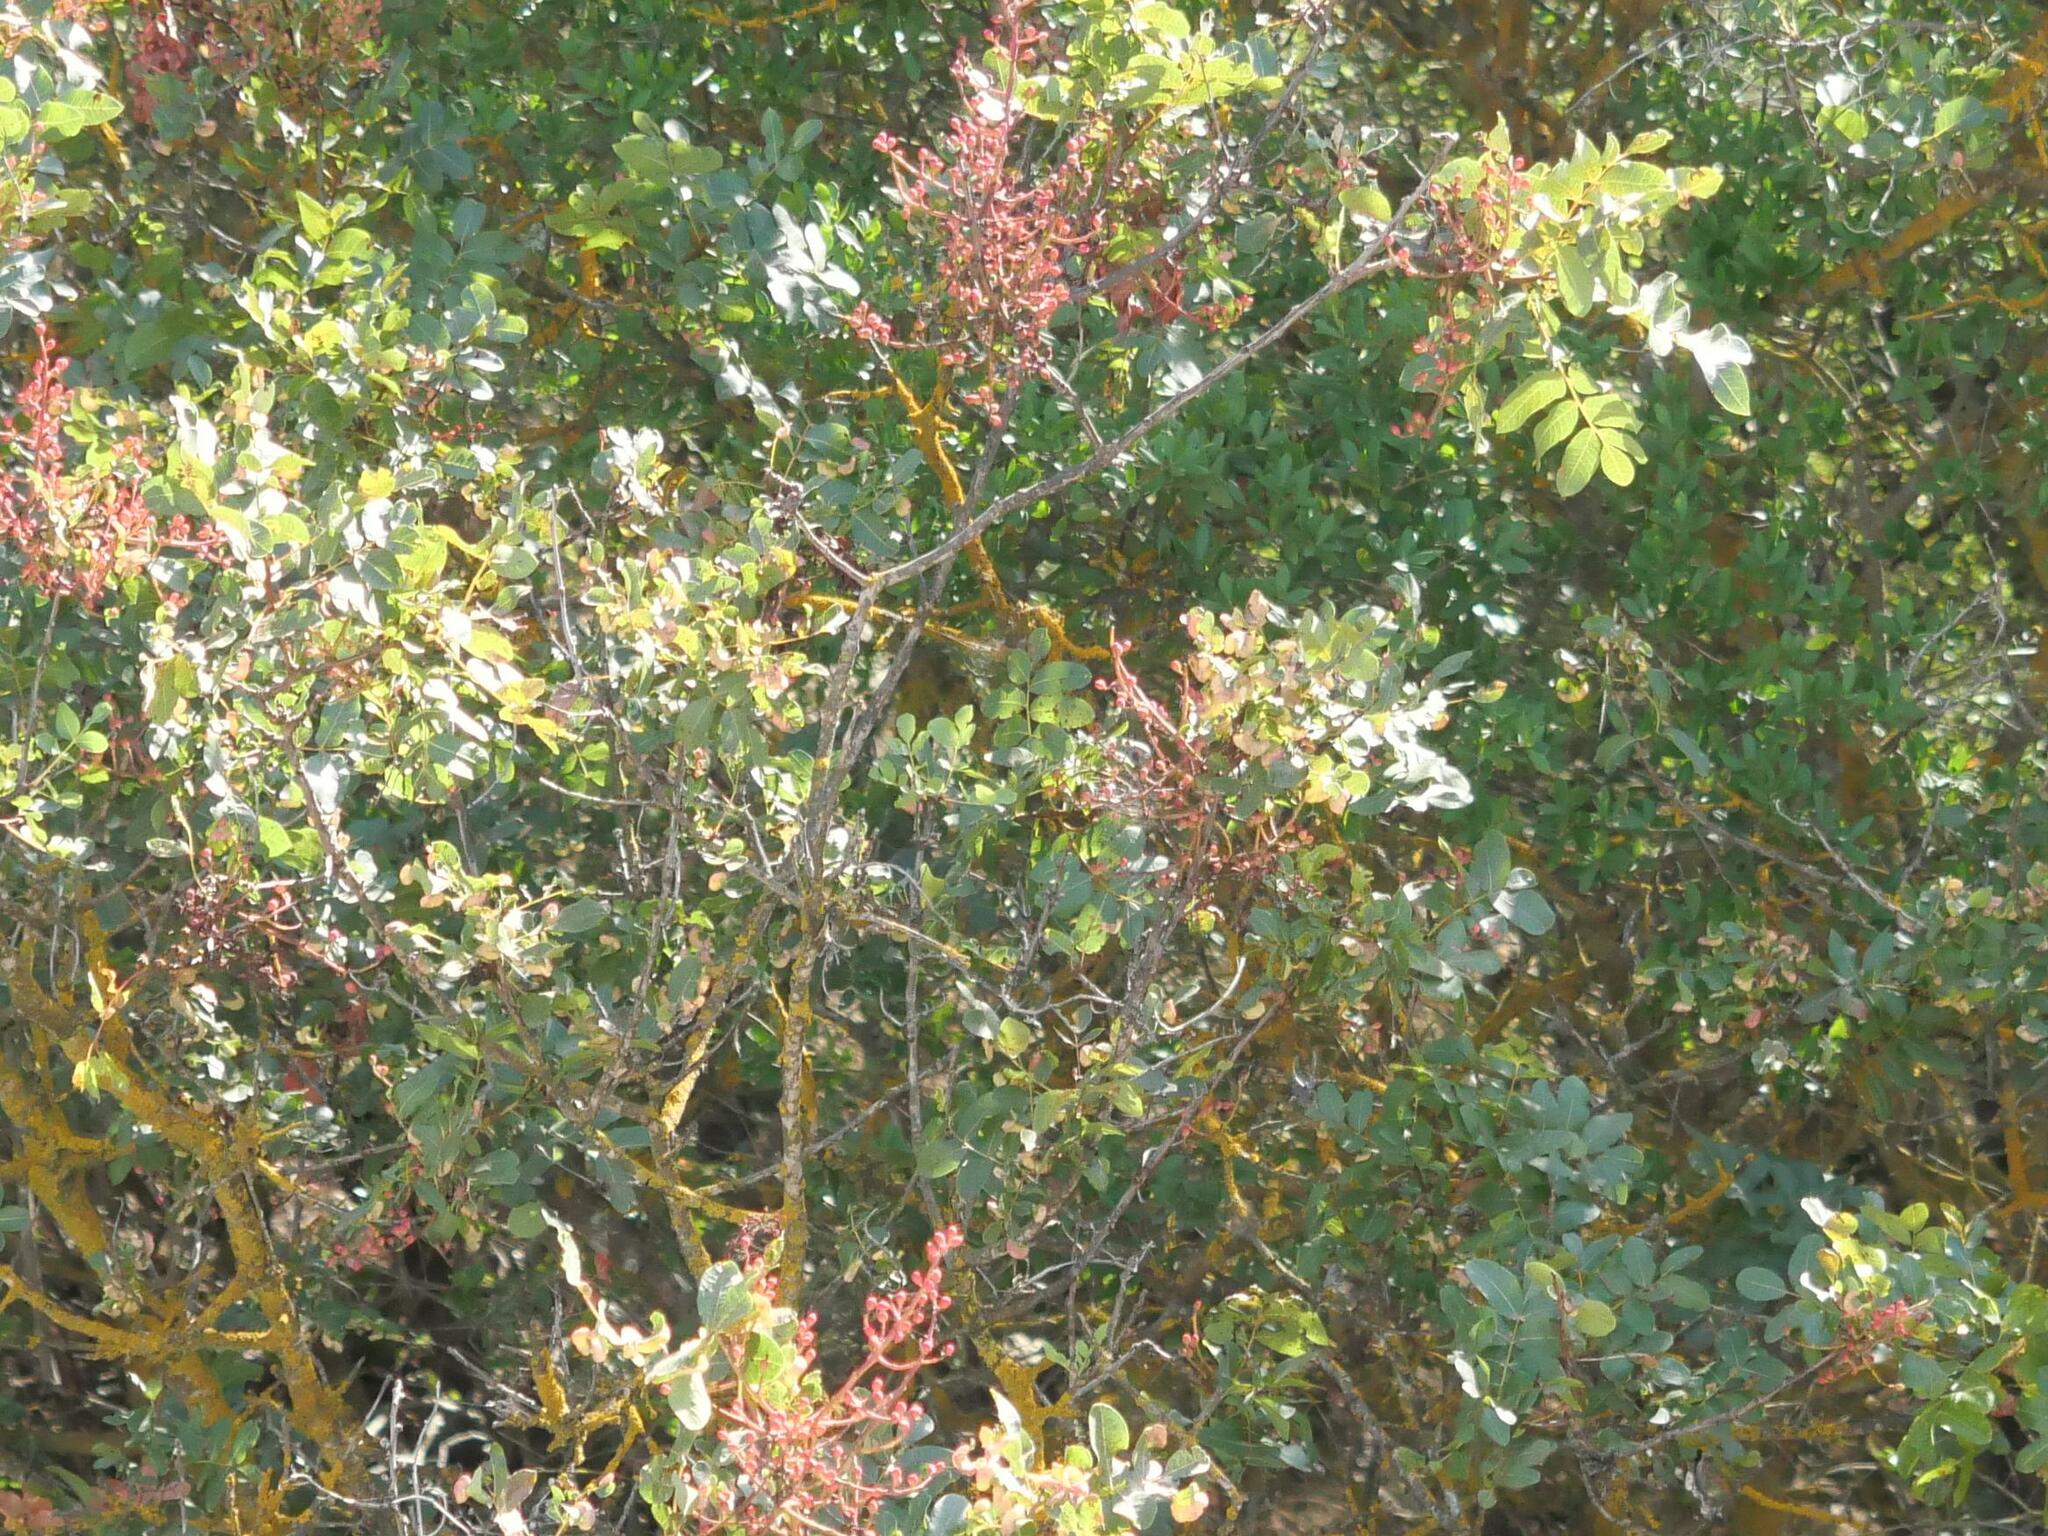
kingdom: Plantae
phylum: Tracheophyta
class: Magnoliopsida
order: Sapindales
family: Anacardiaceae
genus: Pistacia
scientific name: Pistacia terebinthus
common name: Terebinth
